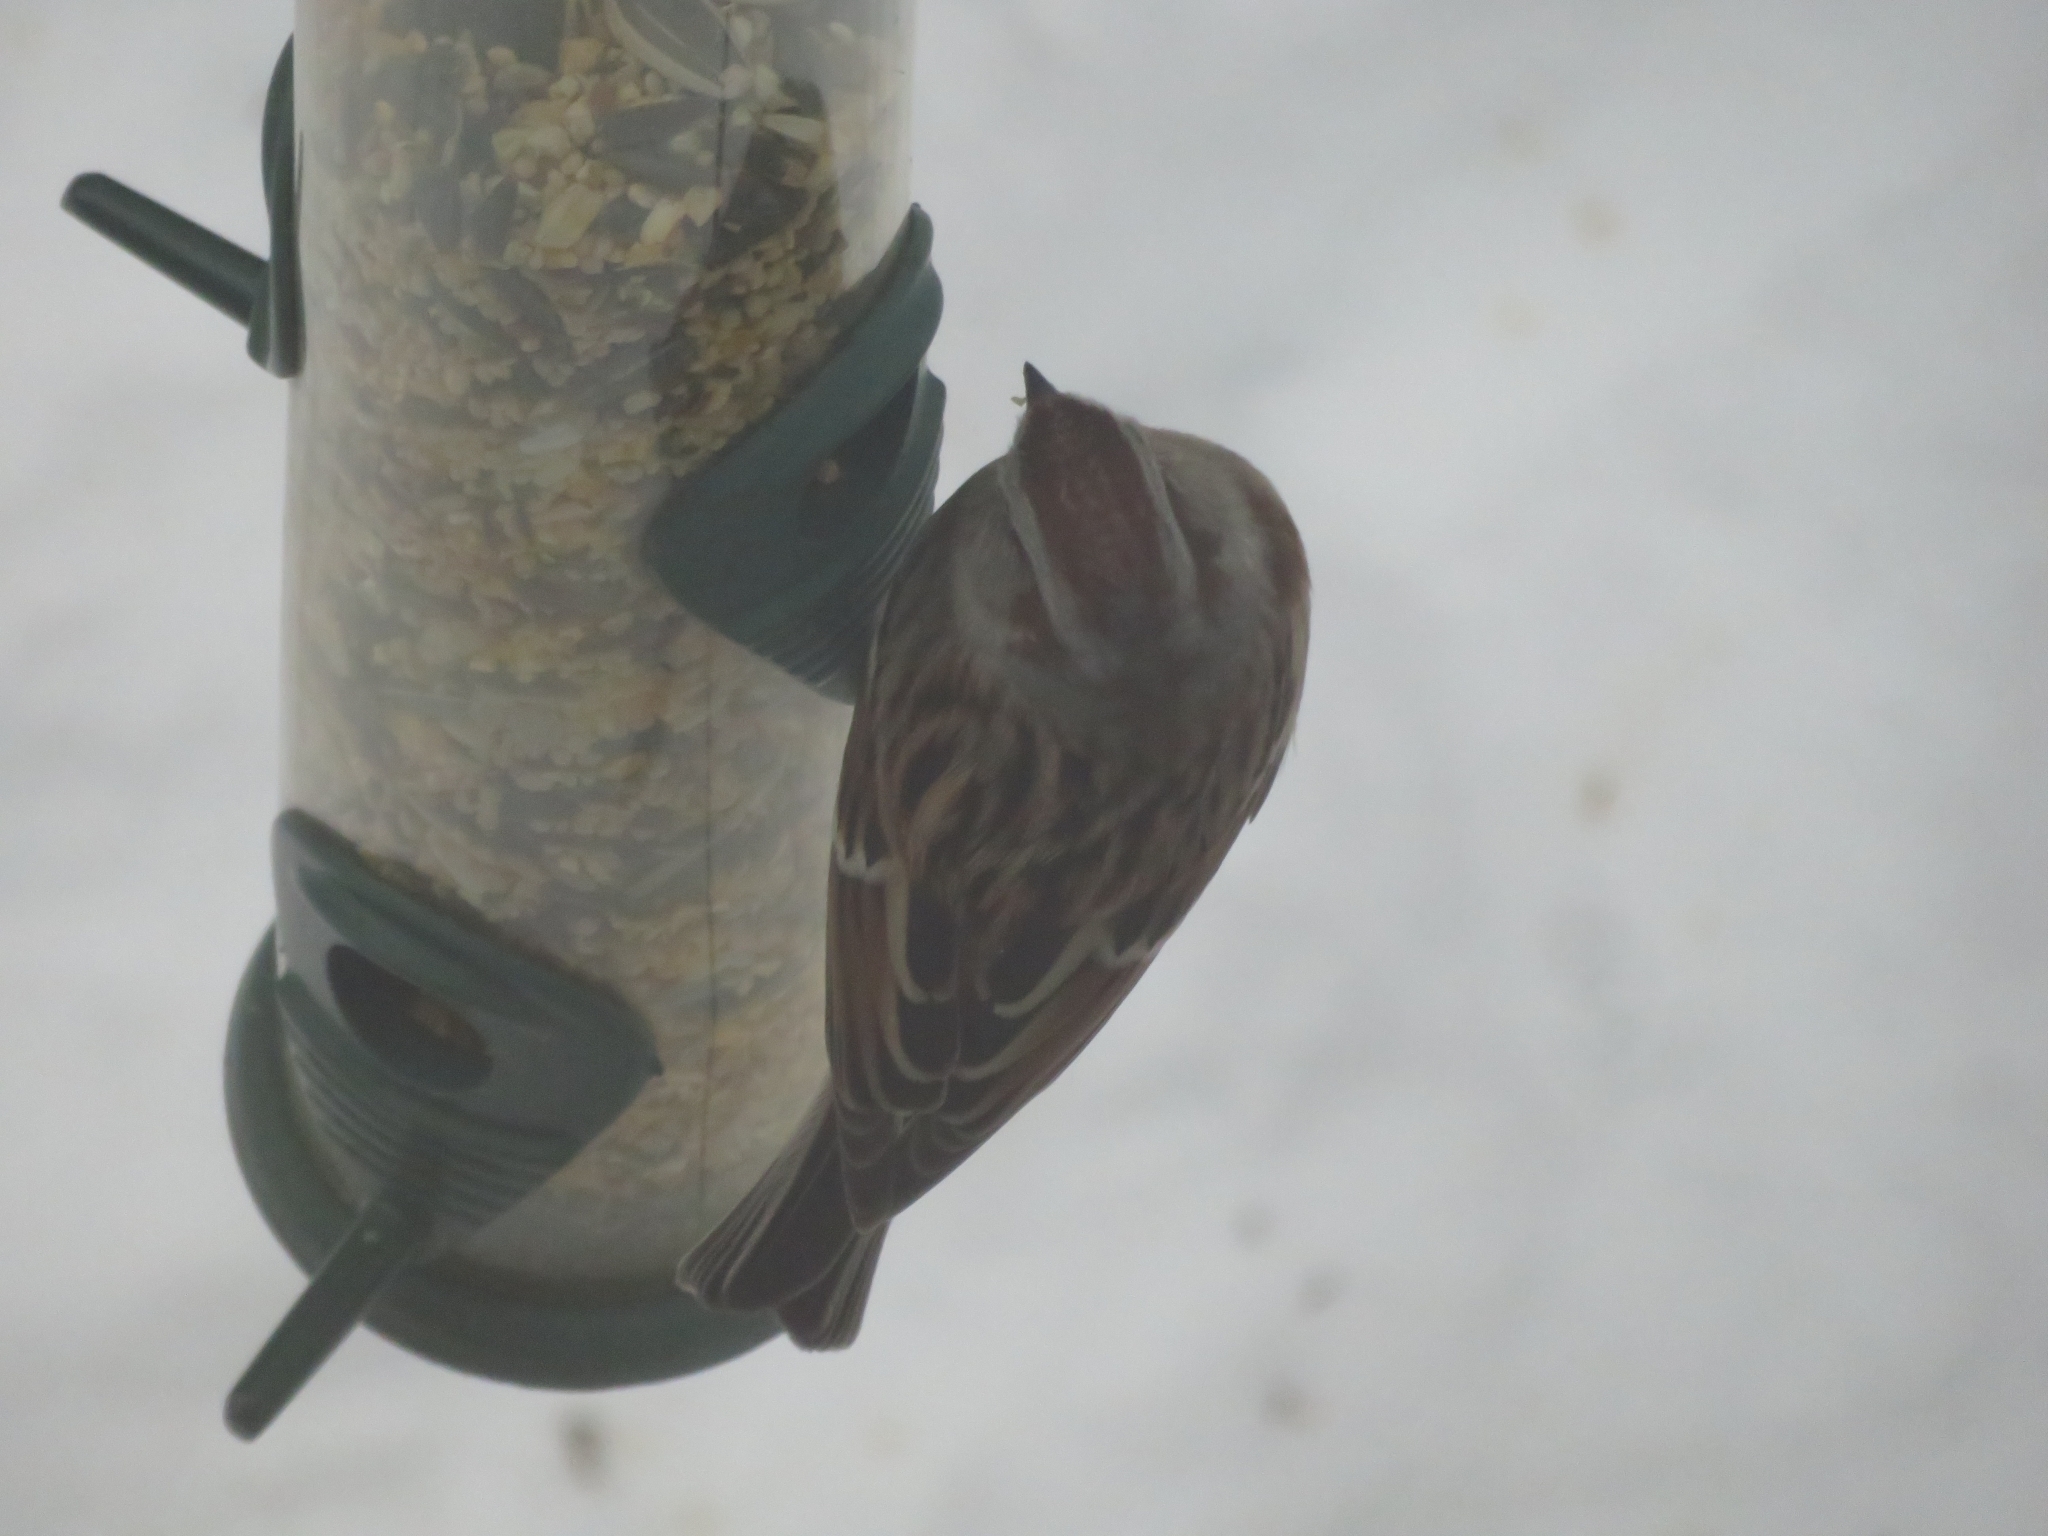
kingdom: Animalia
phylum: Chordata
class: Aves
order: Passeriformes
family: Passerellidae
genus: Spizelloides
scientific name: Spizelloides arborea
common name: American tree sparrow
